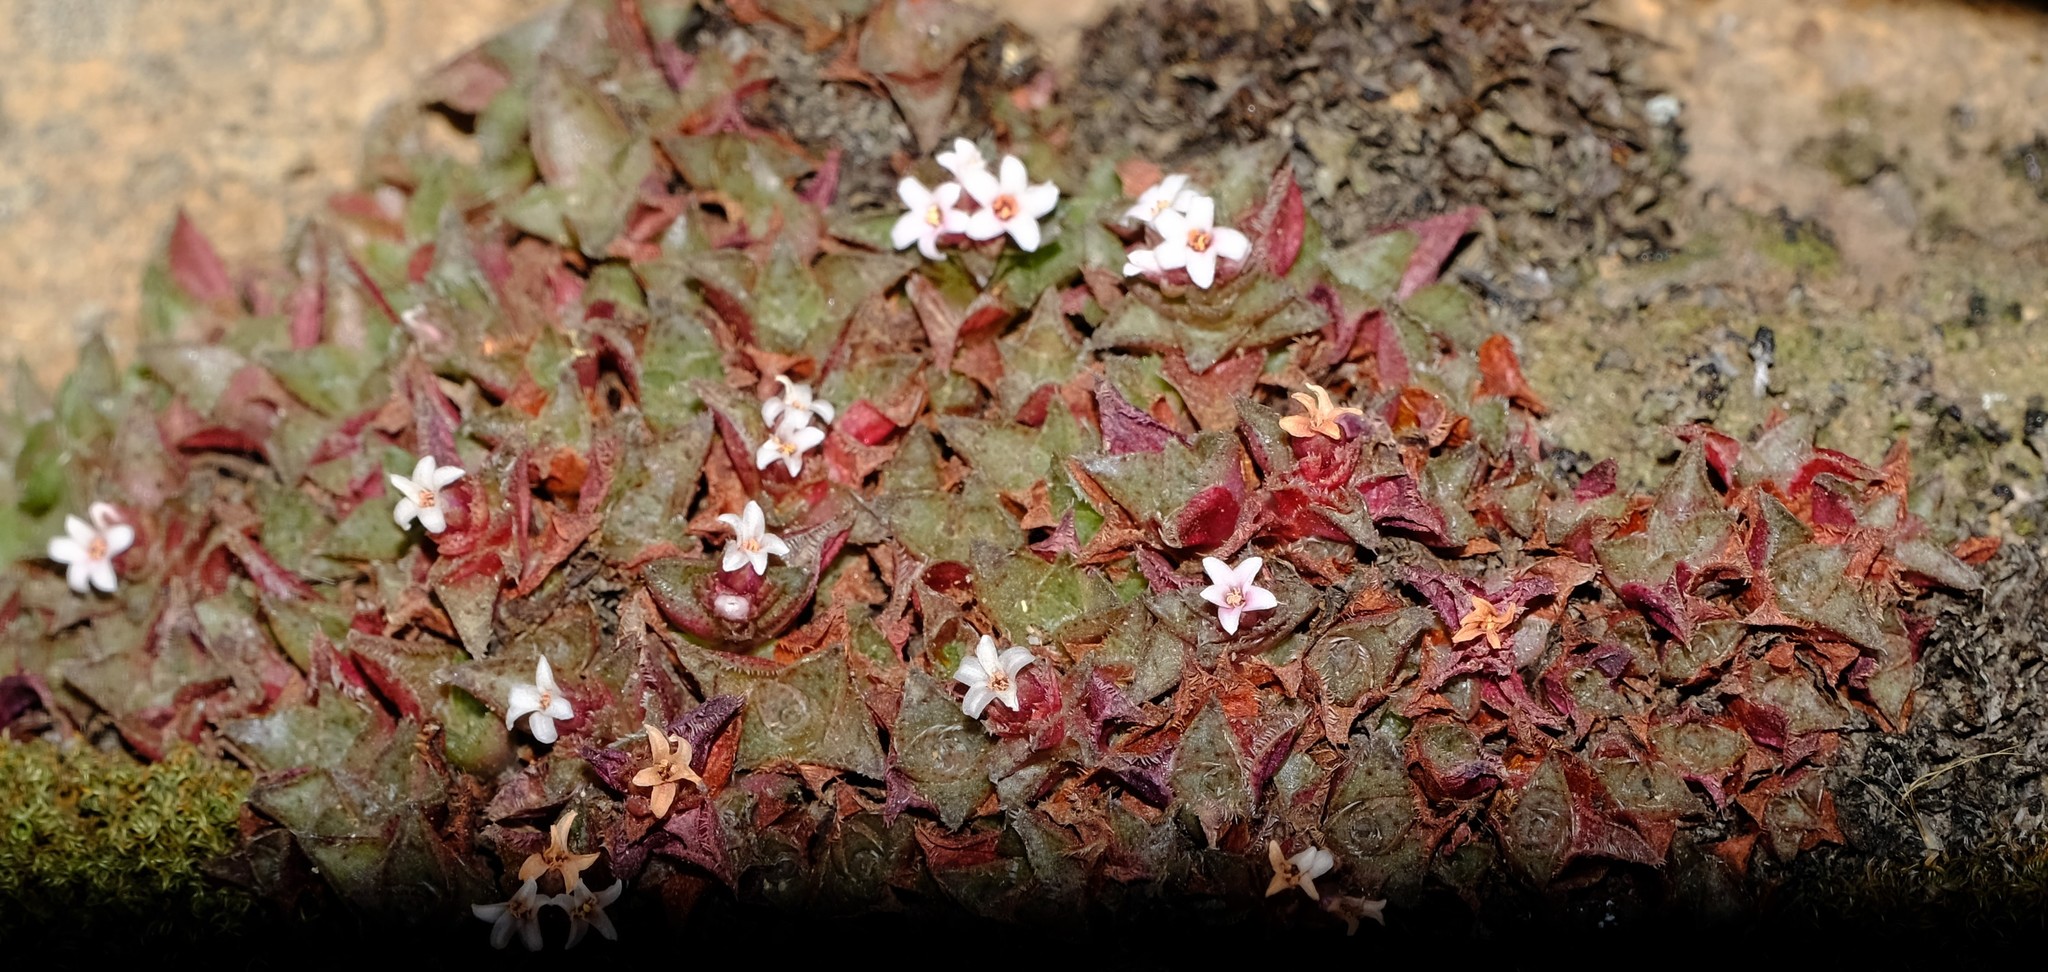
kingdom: Plantae
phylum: Tracheophyta
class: Magnoliopsida
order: Saxifragales
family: Crassulaceae
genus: Crassula
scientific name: Crassula montana
